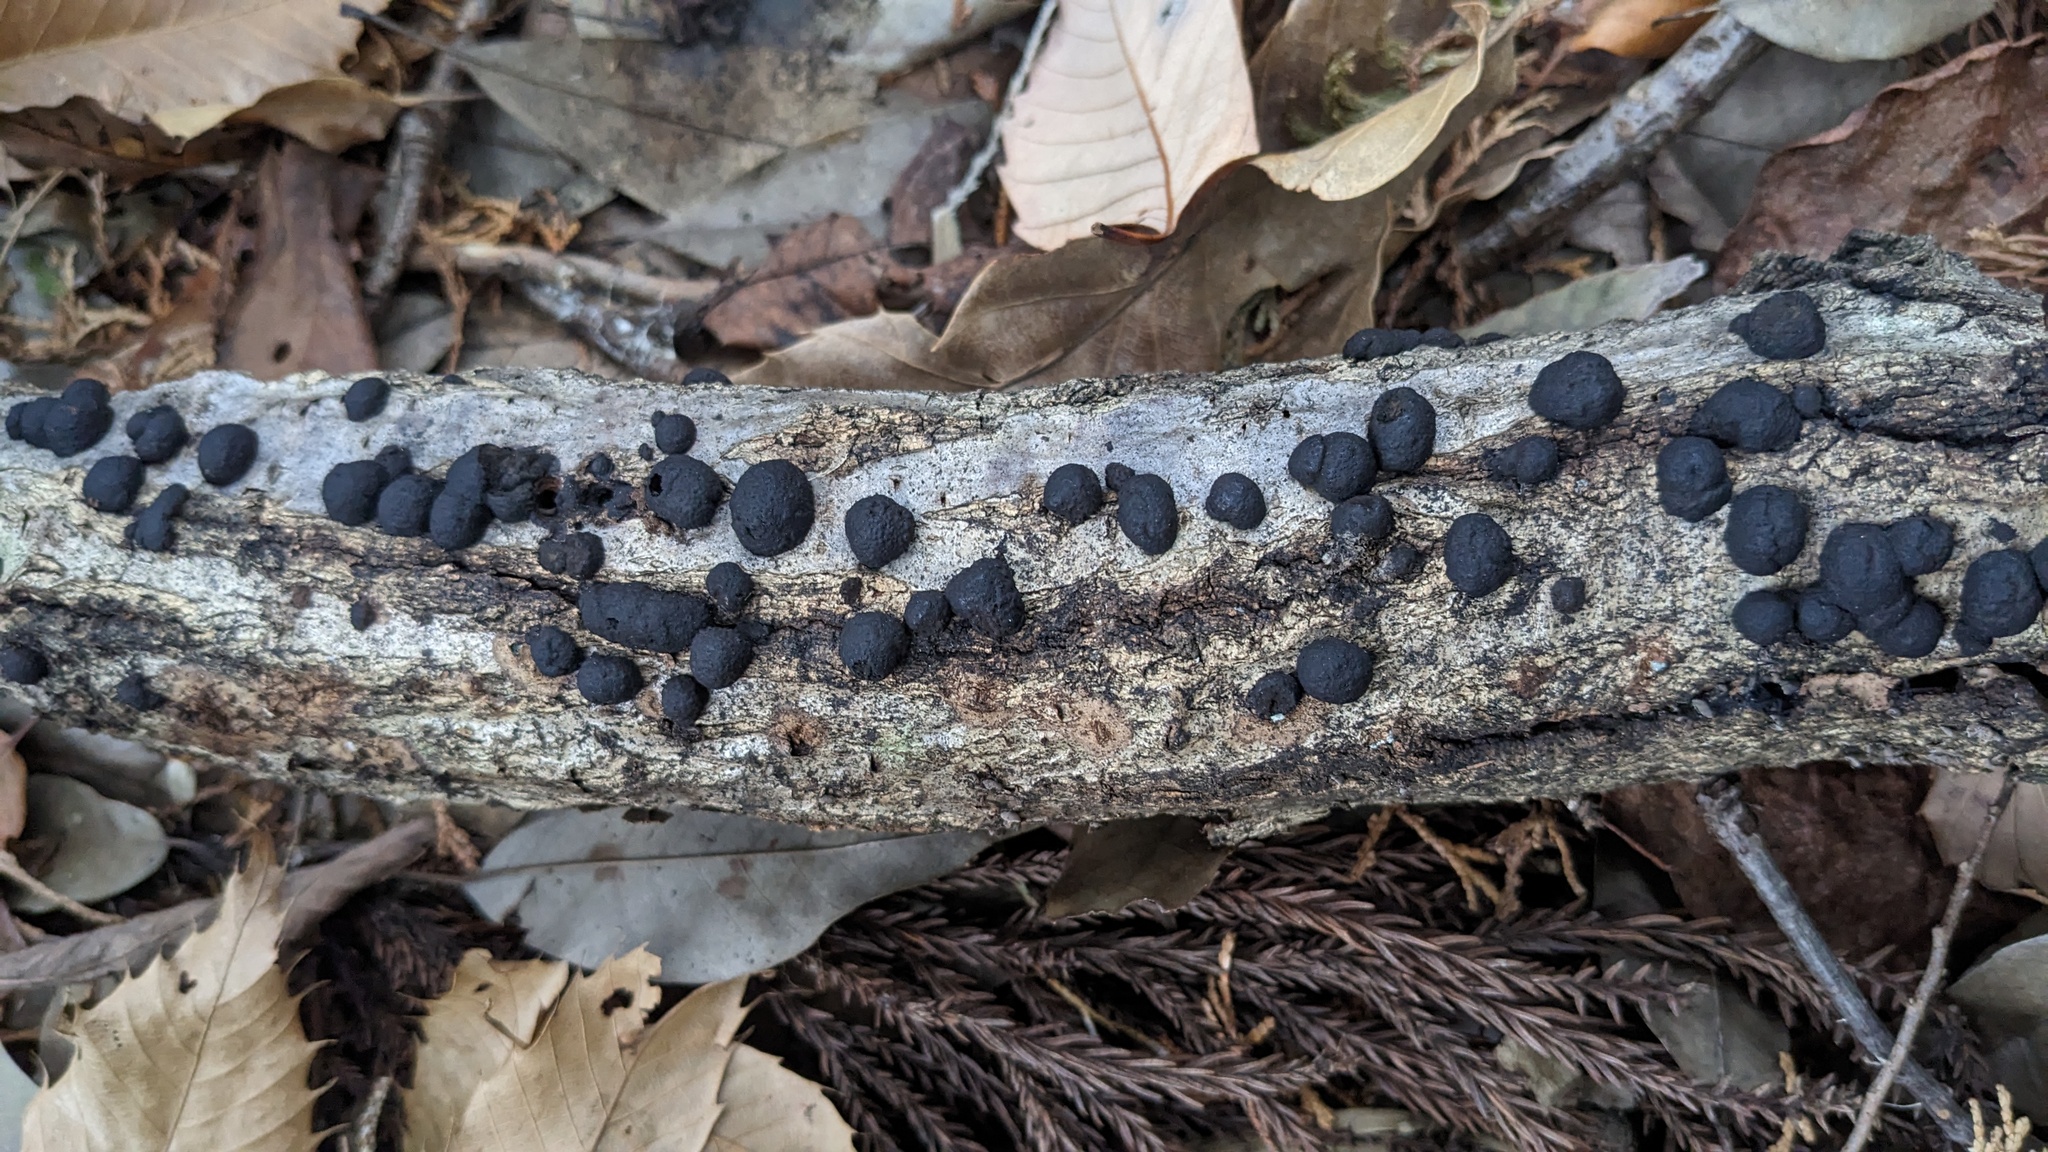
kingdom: Fungi
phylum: Ascomycota
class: Sordariomycetes
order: Xylariales
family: Hypoxylaceae
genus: Annulohypoxylon
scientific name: Annulohypoxylon truncatum
